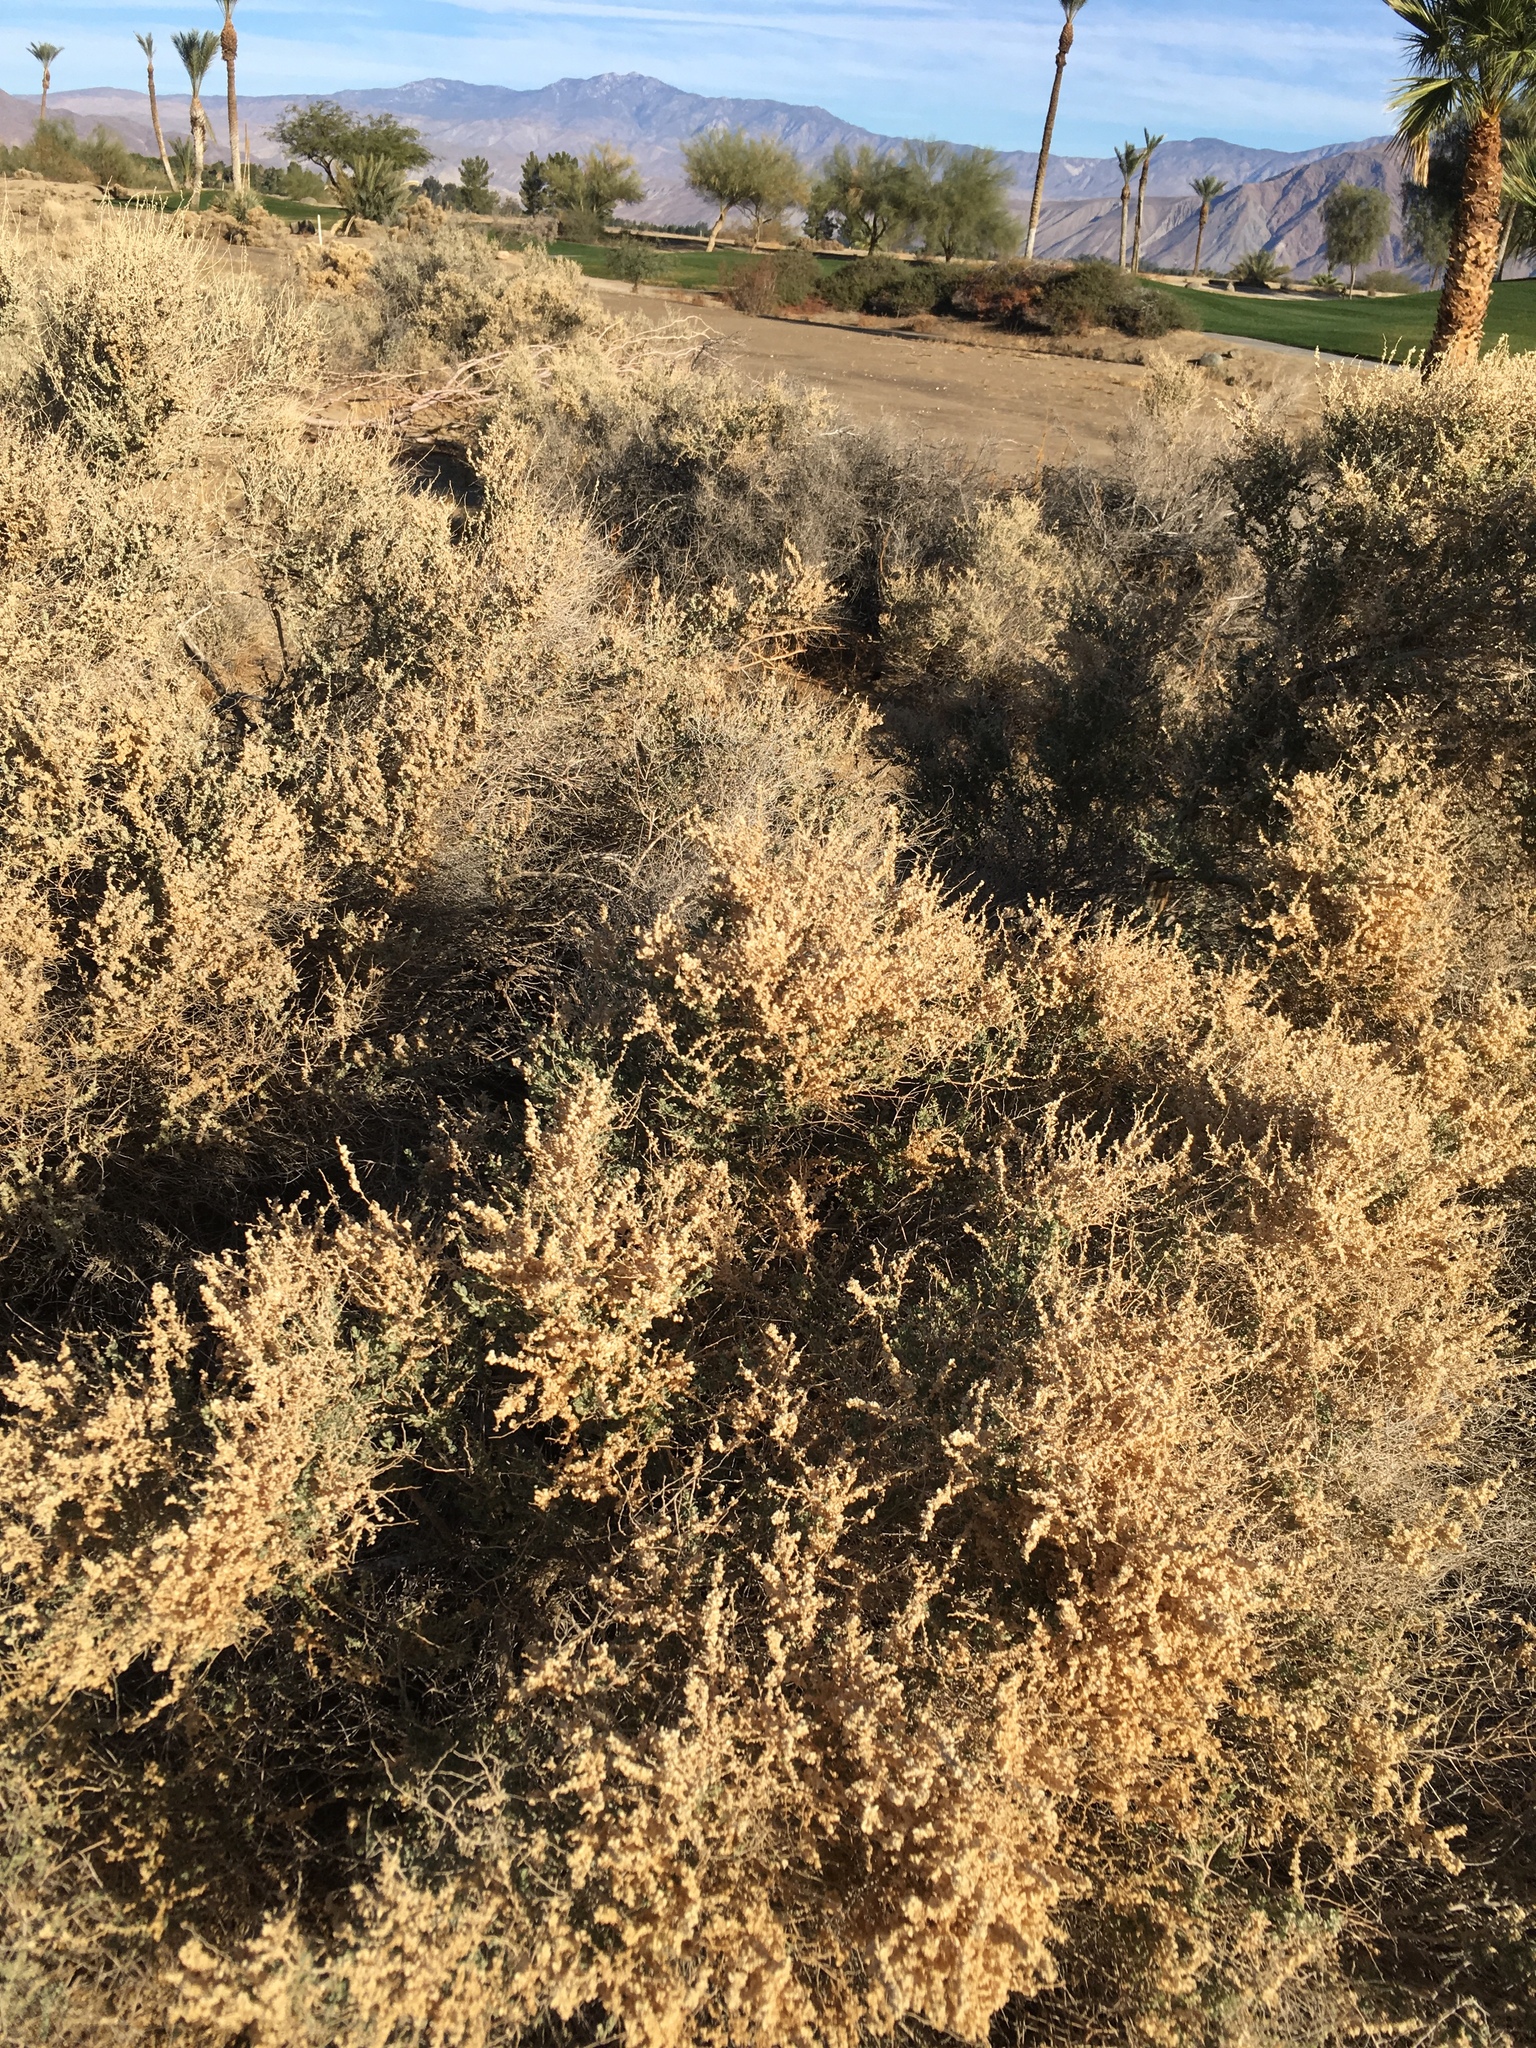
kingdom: Plantae
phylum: Tracheophyta
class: Magnoliopsida
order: Caryophyllales
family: Amaranthaceae
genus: Atriplex
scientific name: Atriplex polycarpa
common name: Desert saltbush
